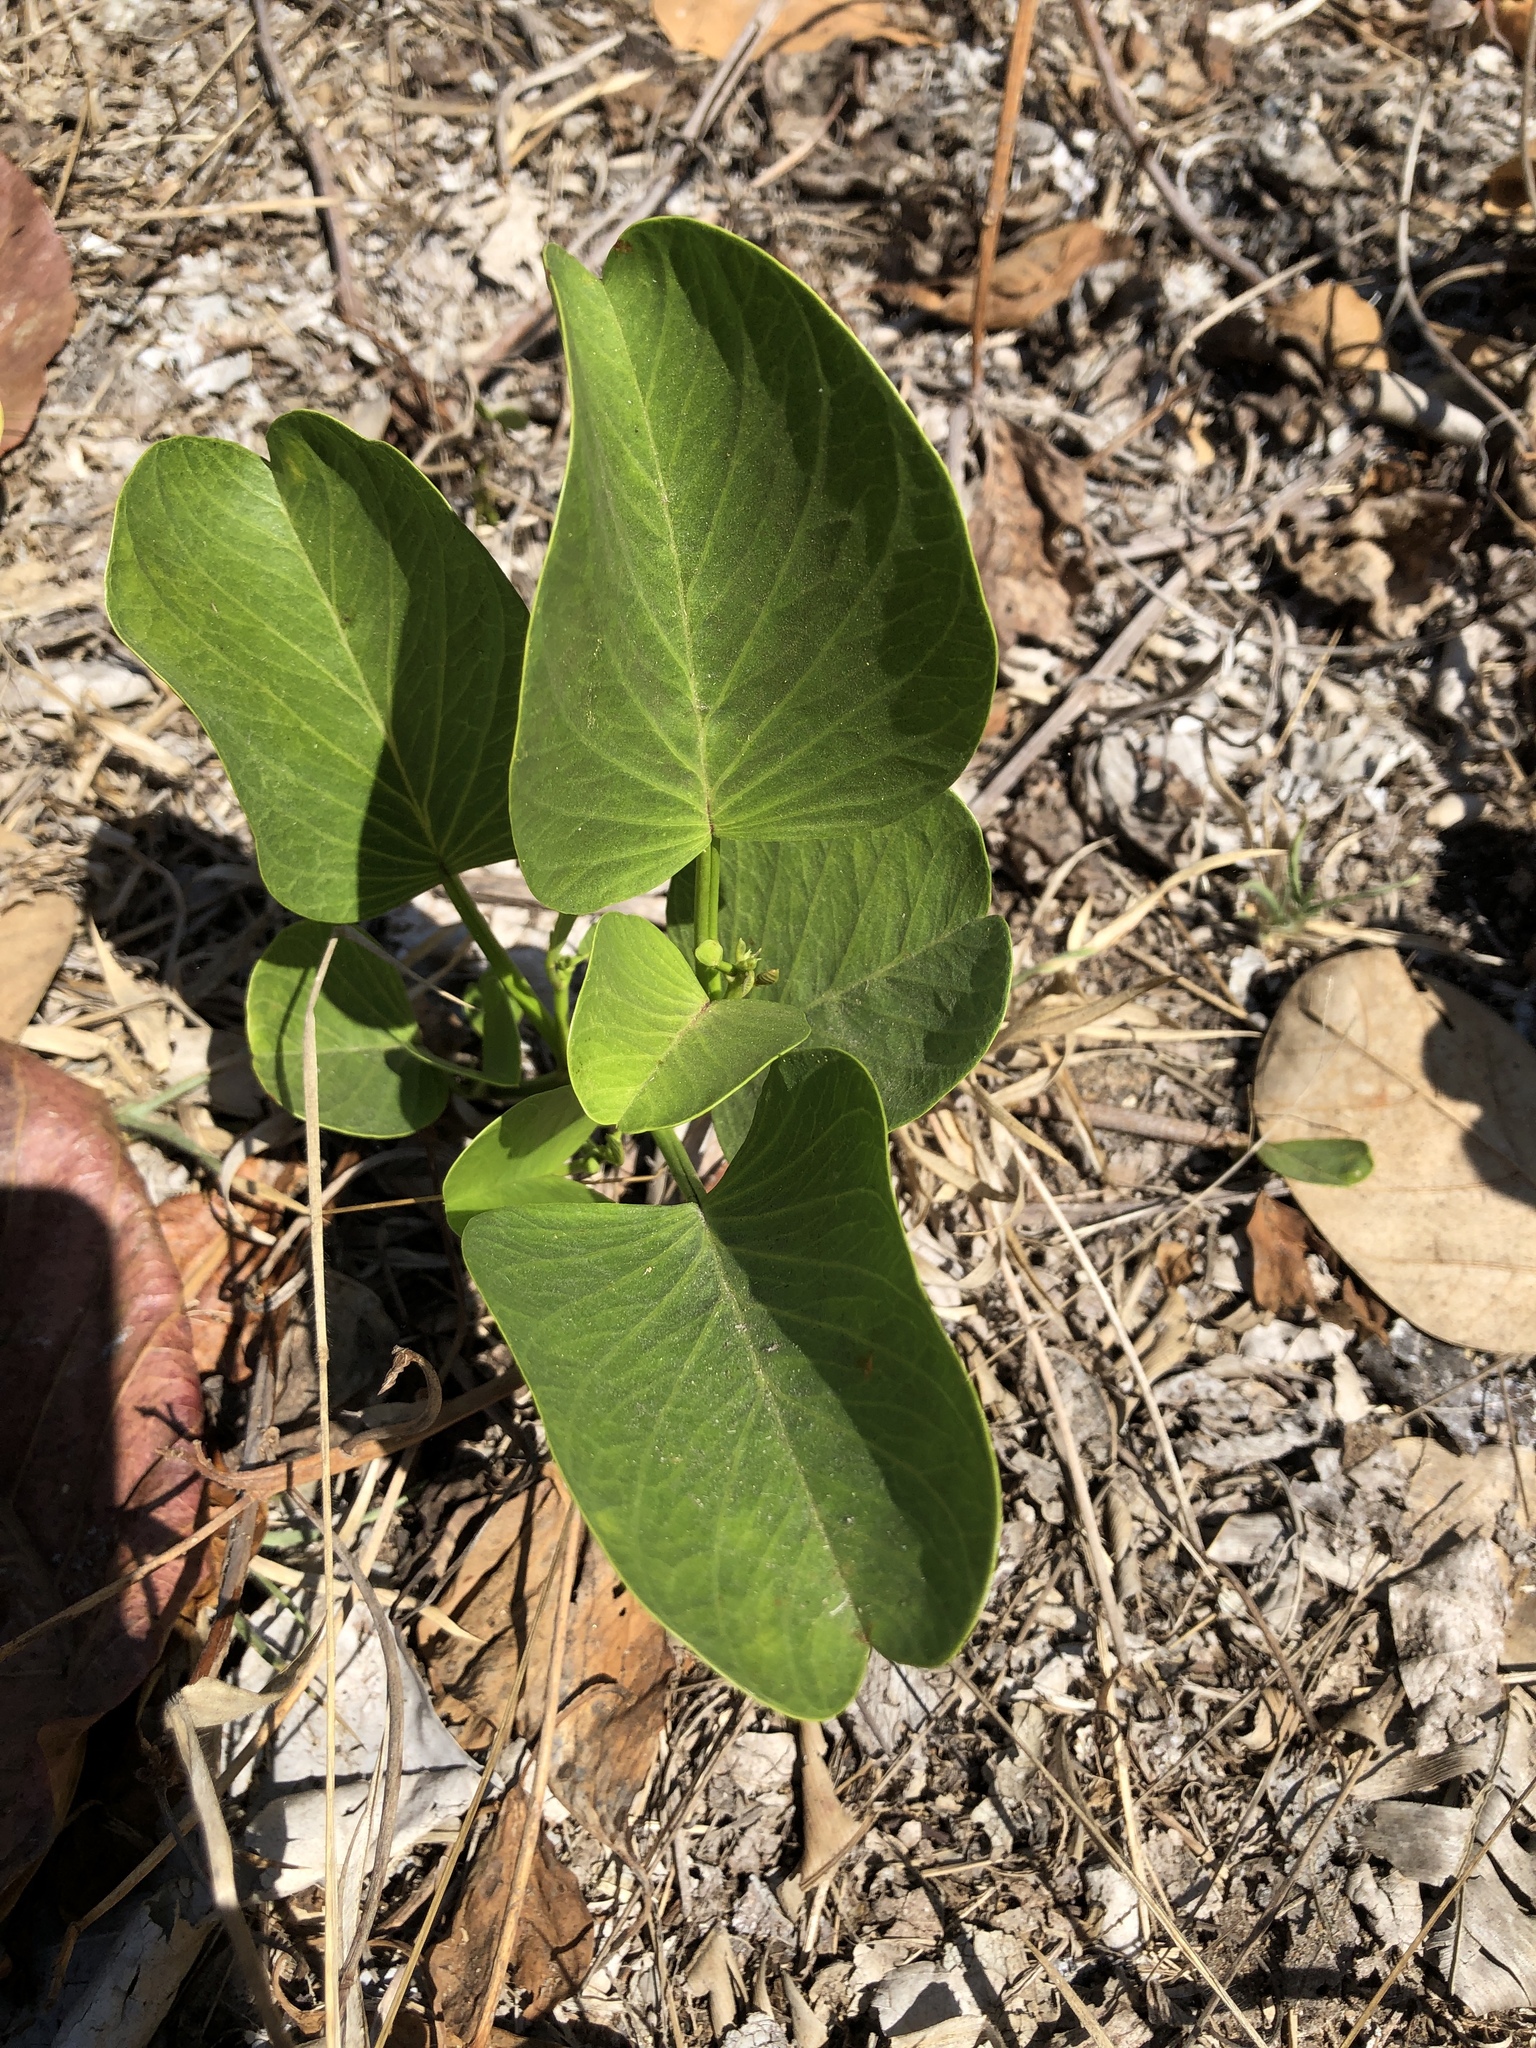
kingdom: Plantae
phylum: Tracheophyta
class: Magnoliopsida
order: Solanales
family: Convolvulaceae
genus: Ipomoea
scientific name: Ipomoea pes-caprae
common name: Beach morning glory
